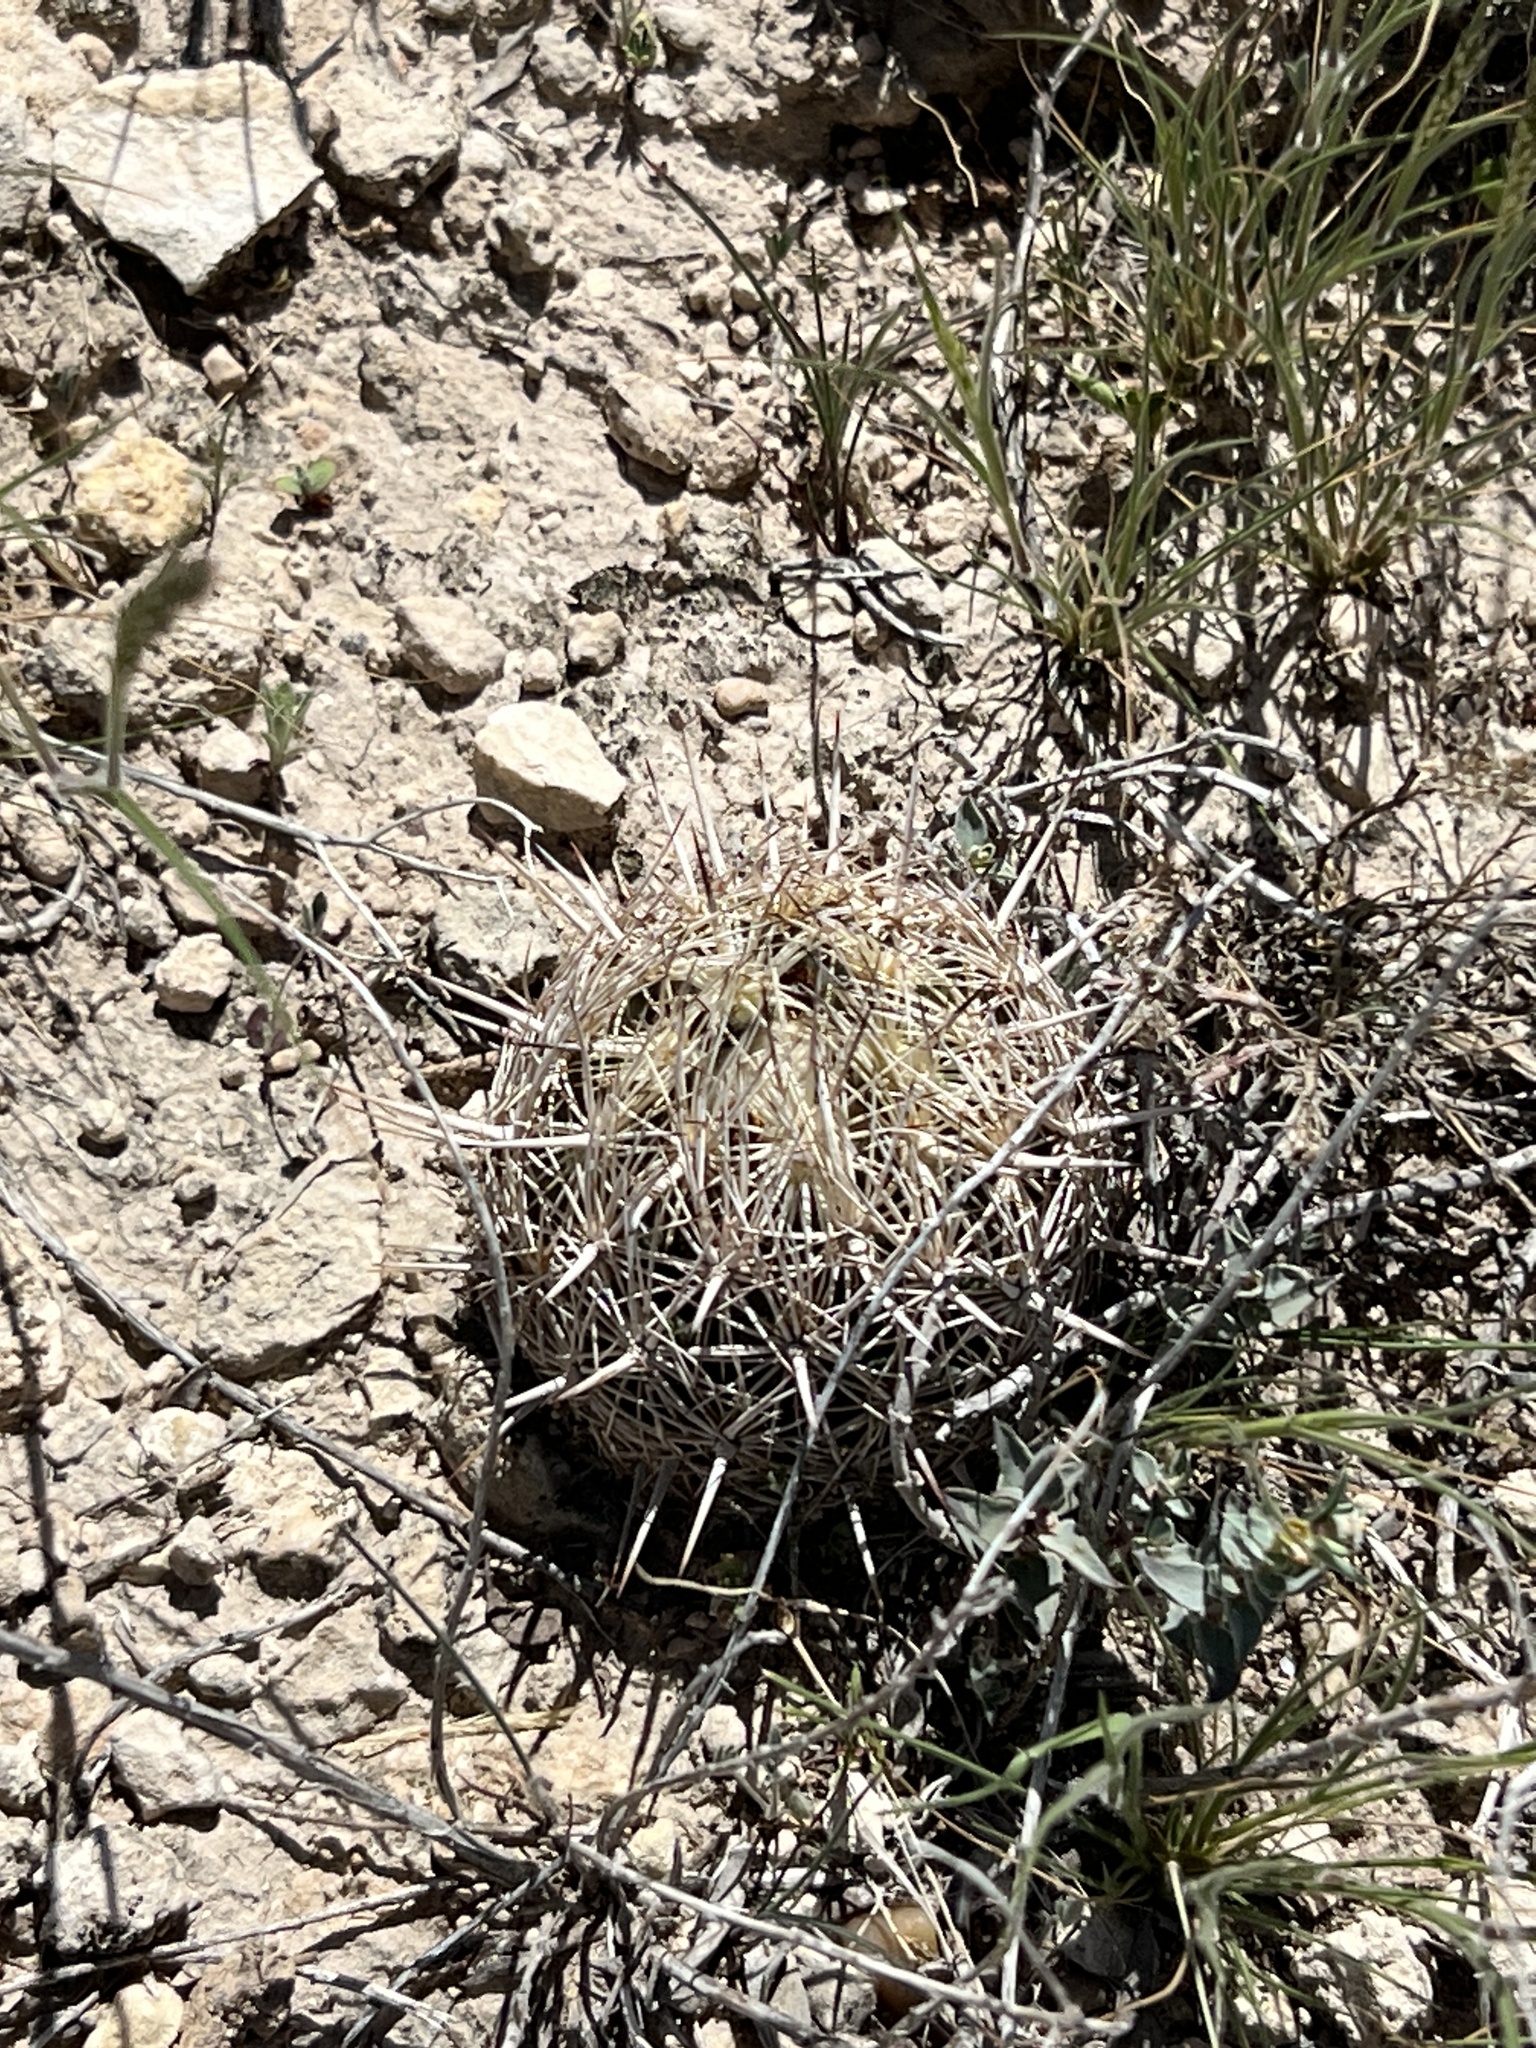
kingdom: Plantae
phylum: Tracheophyta
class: Magnoliopsida
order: Caryophyllales
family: Cactaceae
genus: Coryphantha
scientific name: Coryphantha echinus
